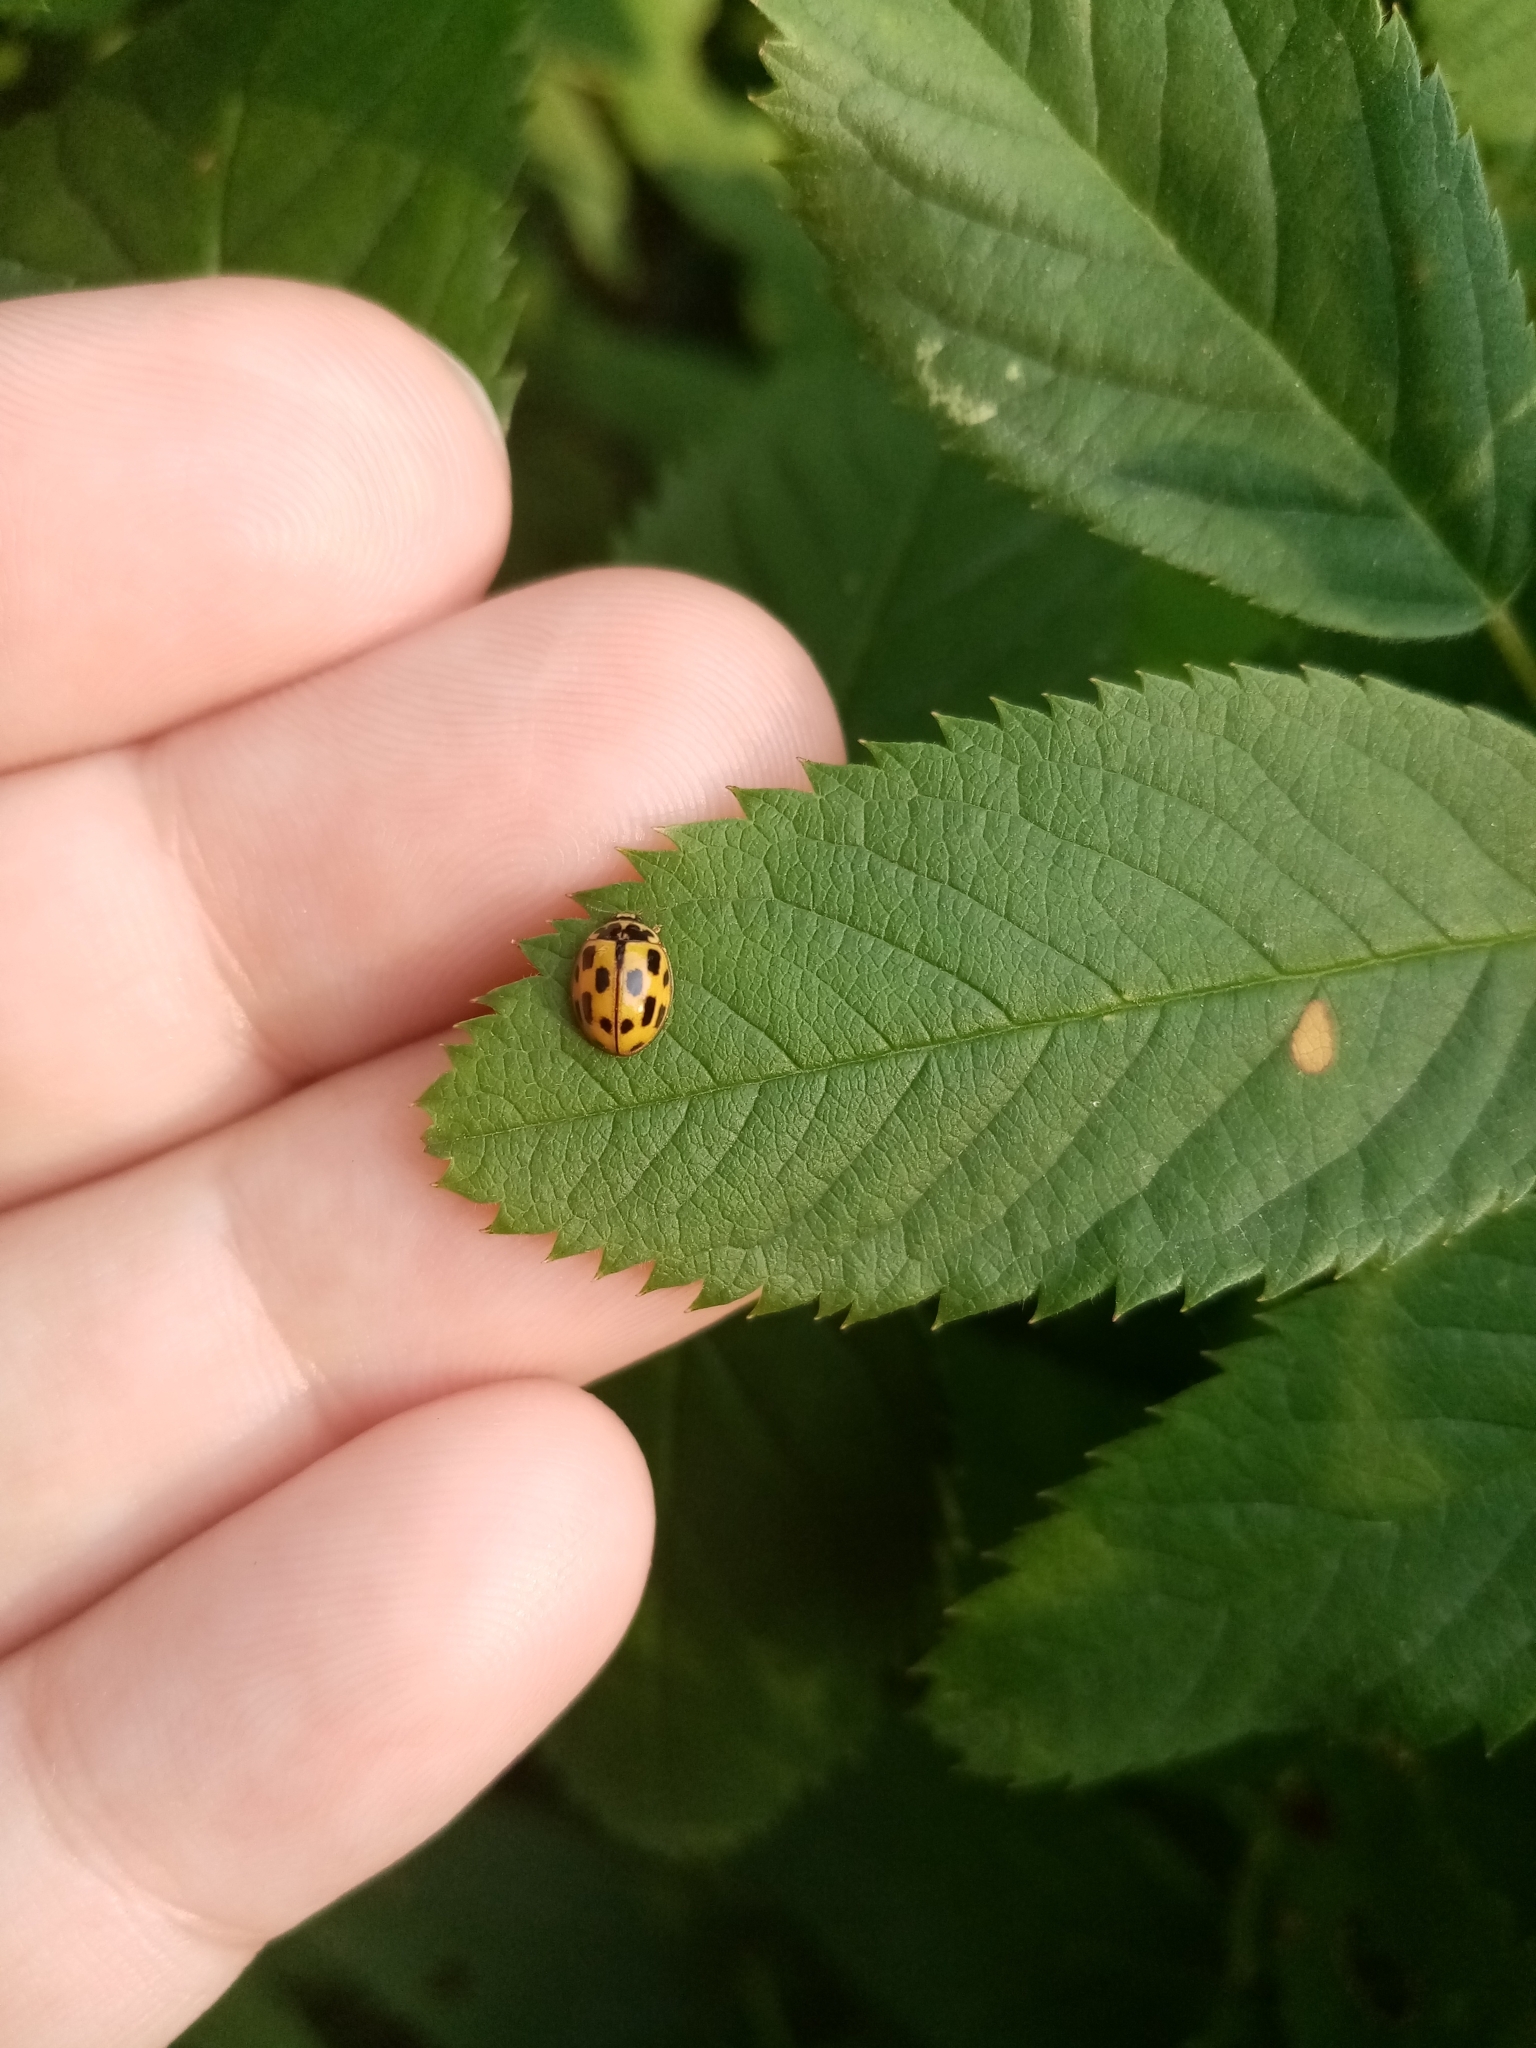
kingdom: Animalia
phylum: Arthropoda
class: Insecta
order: Coleoptera
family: Coccinellidae
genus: Propylaea
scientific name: Propylaea quatuordecimpunctata
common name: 14-spotted ladybird beetle
